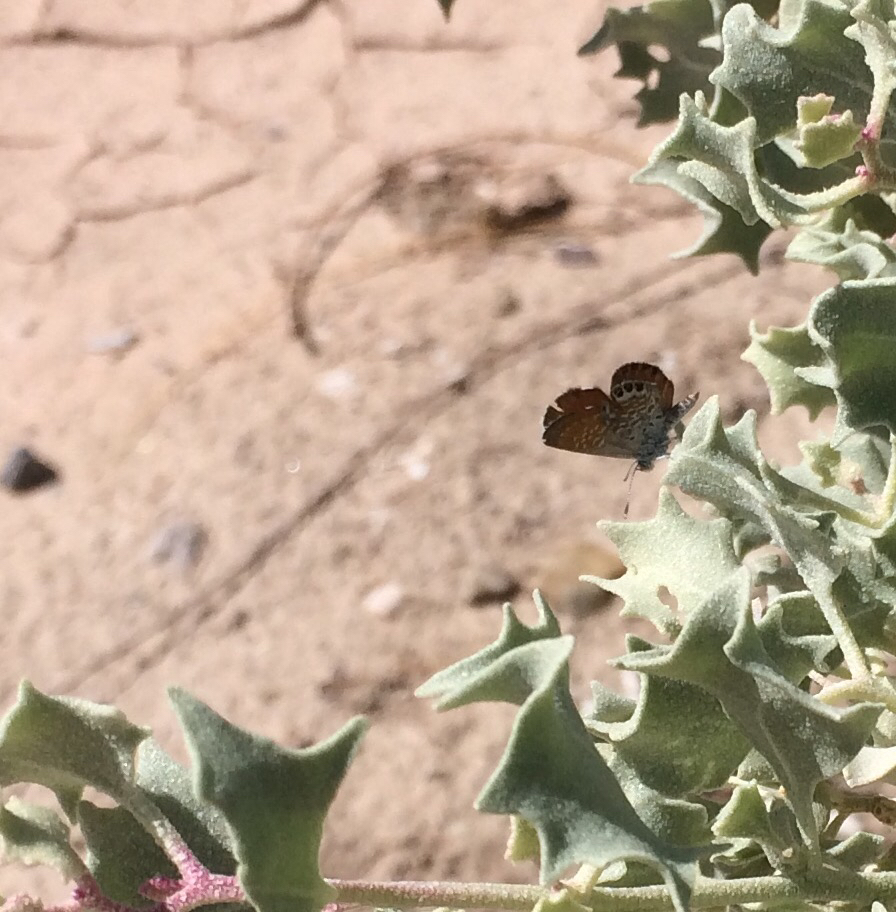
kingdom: Animalia
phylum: Arthropoda
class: Insecta
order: Lepidoptera
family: Lycaenidae
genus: Brephidium
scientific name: Brephidium exilis
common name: Pygmy blue
